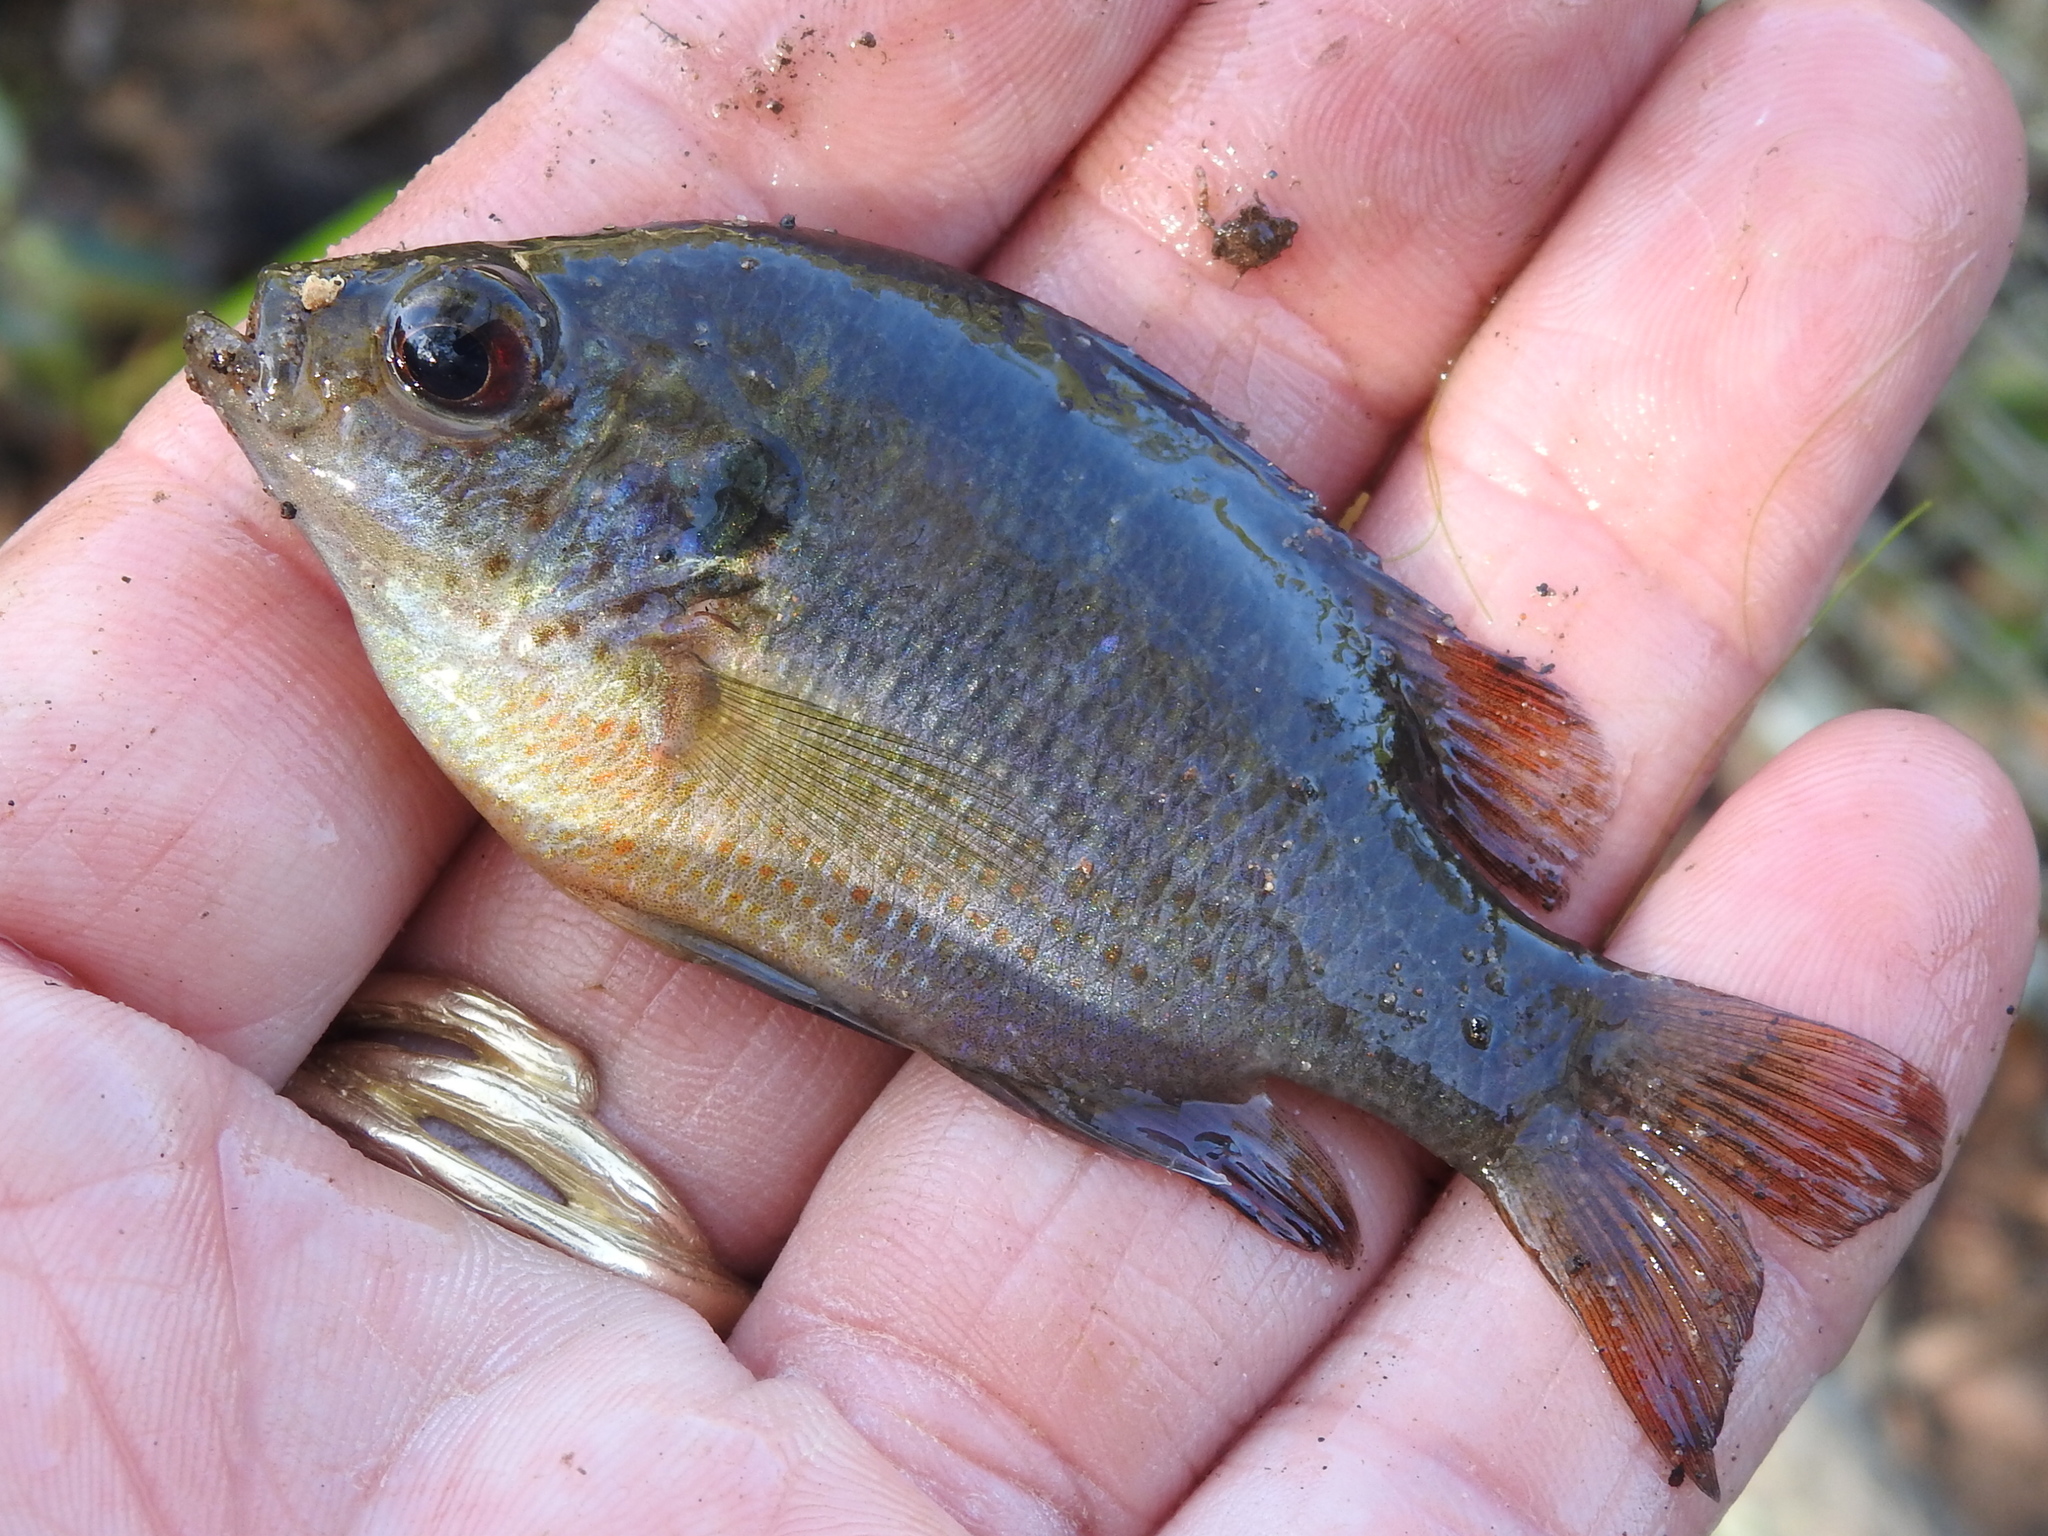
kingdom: Animalia
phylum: Chordata
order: Perciformes
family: Centrarchidae
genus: Lepomis
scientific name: Lepomis miniatus
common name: Redspotted sunfish
